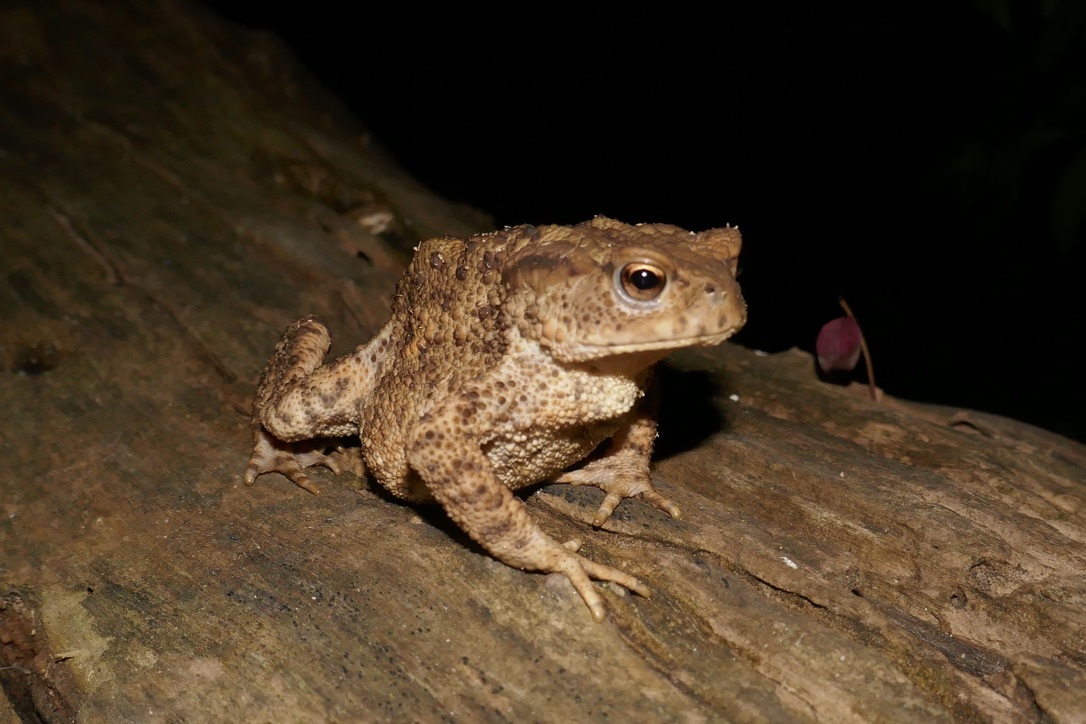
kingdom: Animalia
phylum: Chordata
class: Amphibia
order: Anura
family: Bufonidae
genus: Bufo
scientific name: Bufo bufo
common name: Common toad
